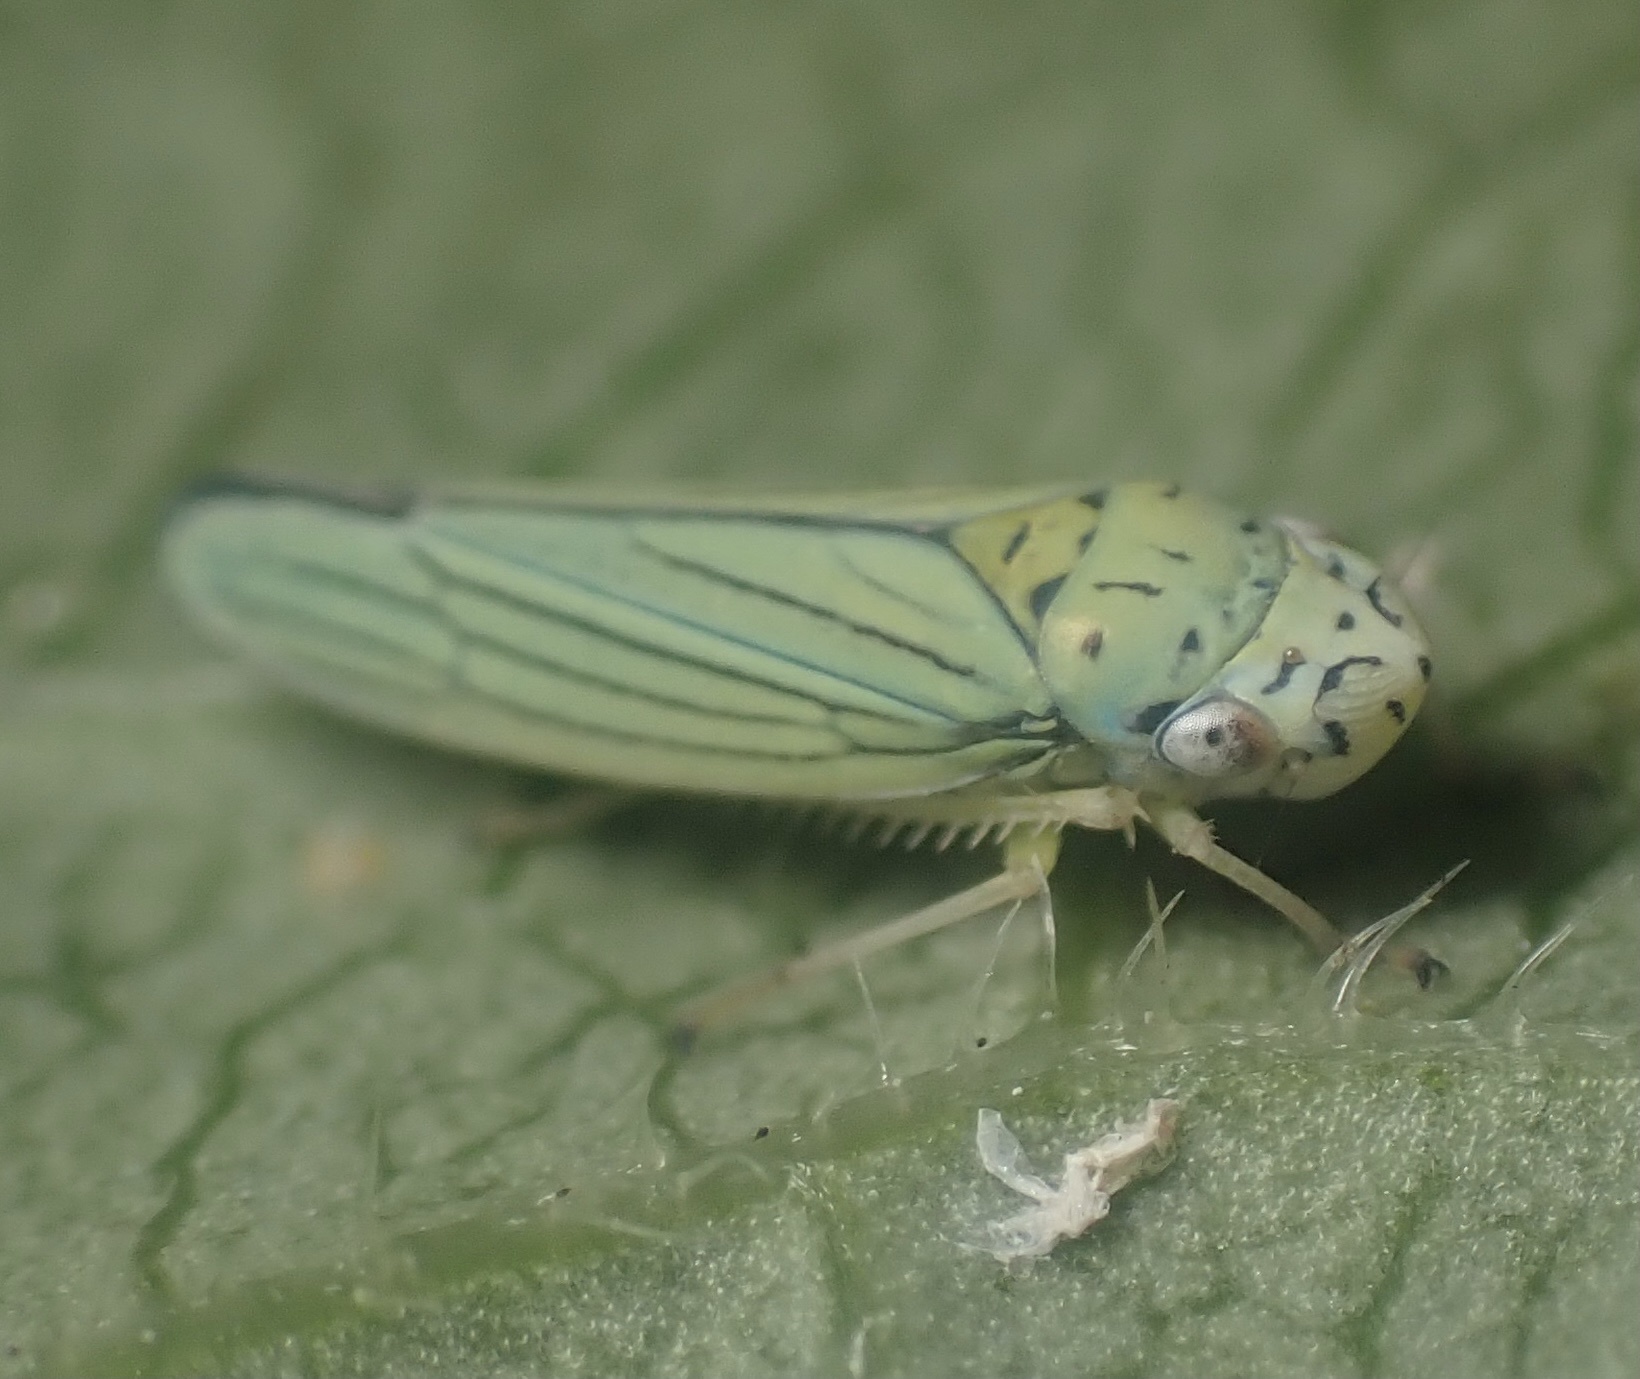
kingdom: Animalia
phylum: Arthropoda
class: Insecta
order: Hemiptera
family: Cicadellidae
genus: Graphocephala
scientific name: Graphocephala atropunctata
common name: Blue-green sharpshooter
